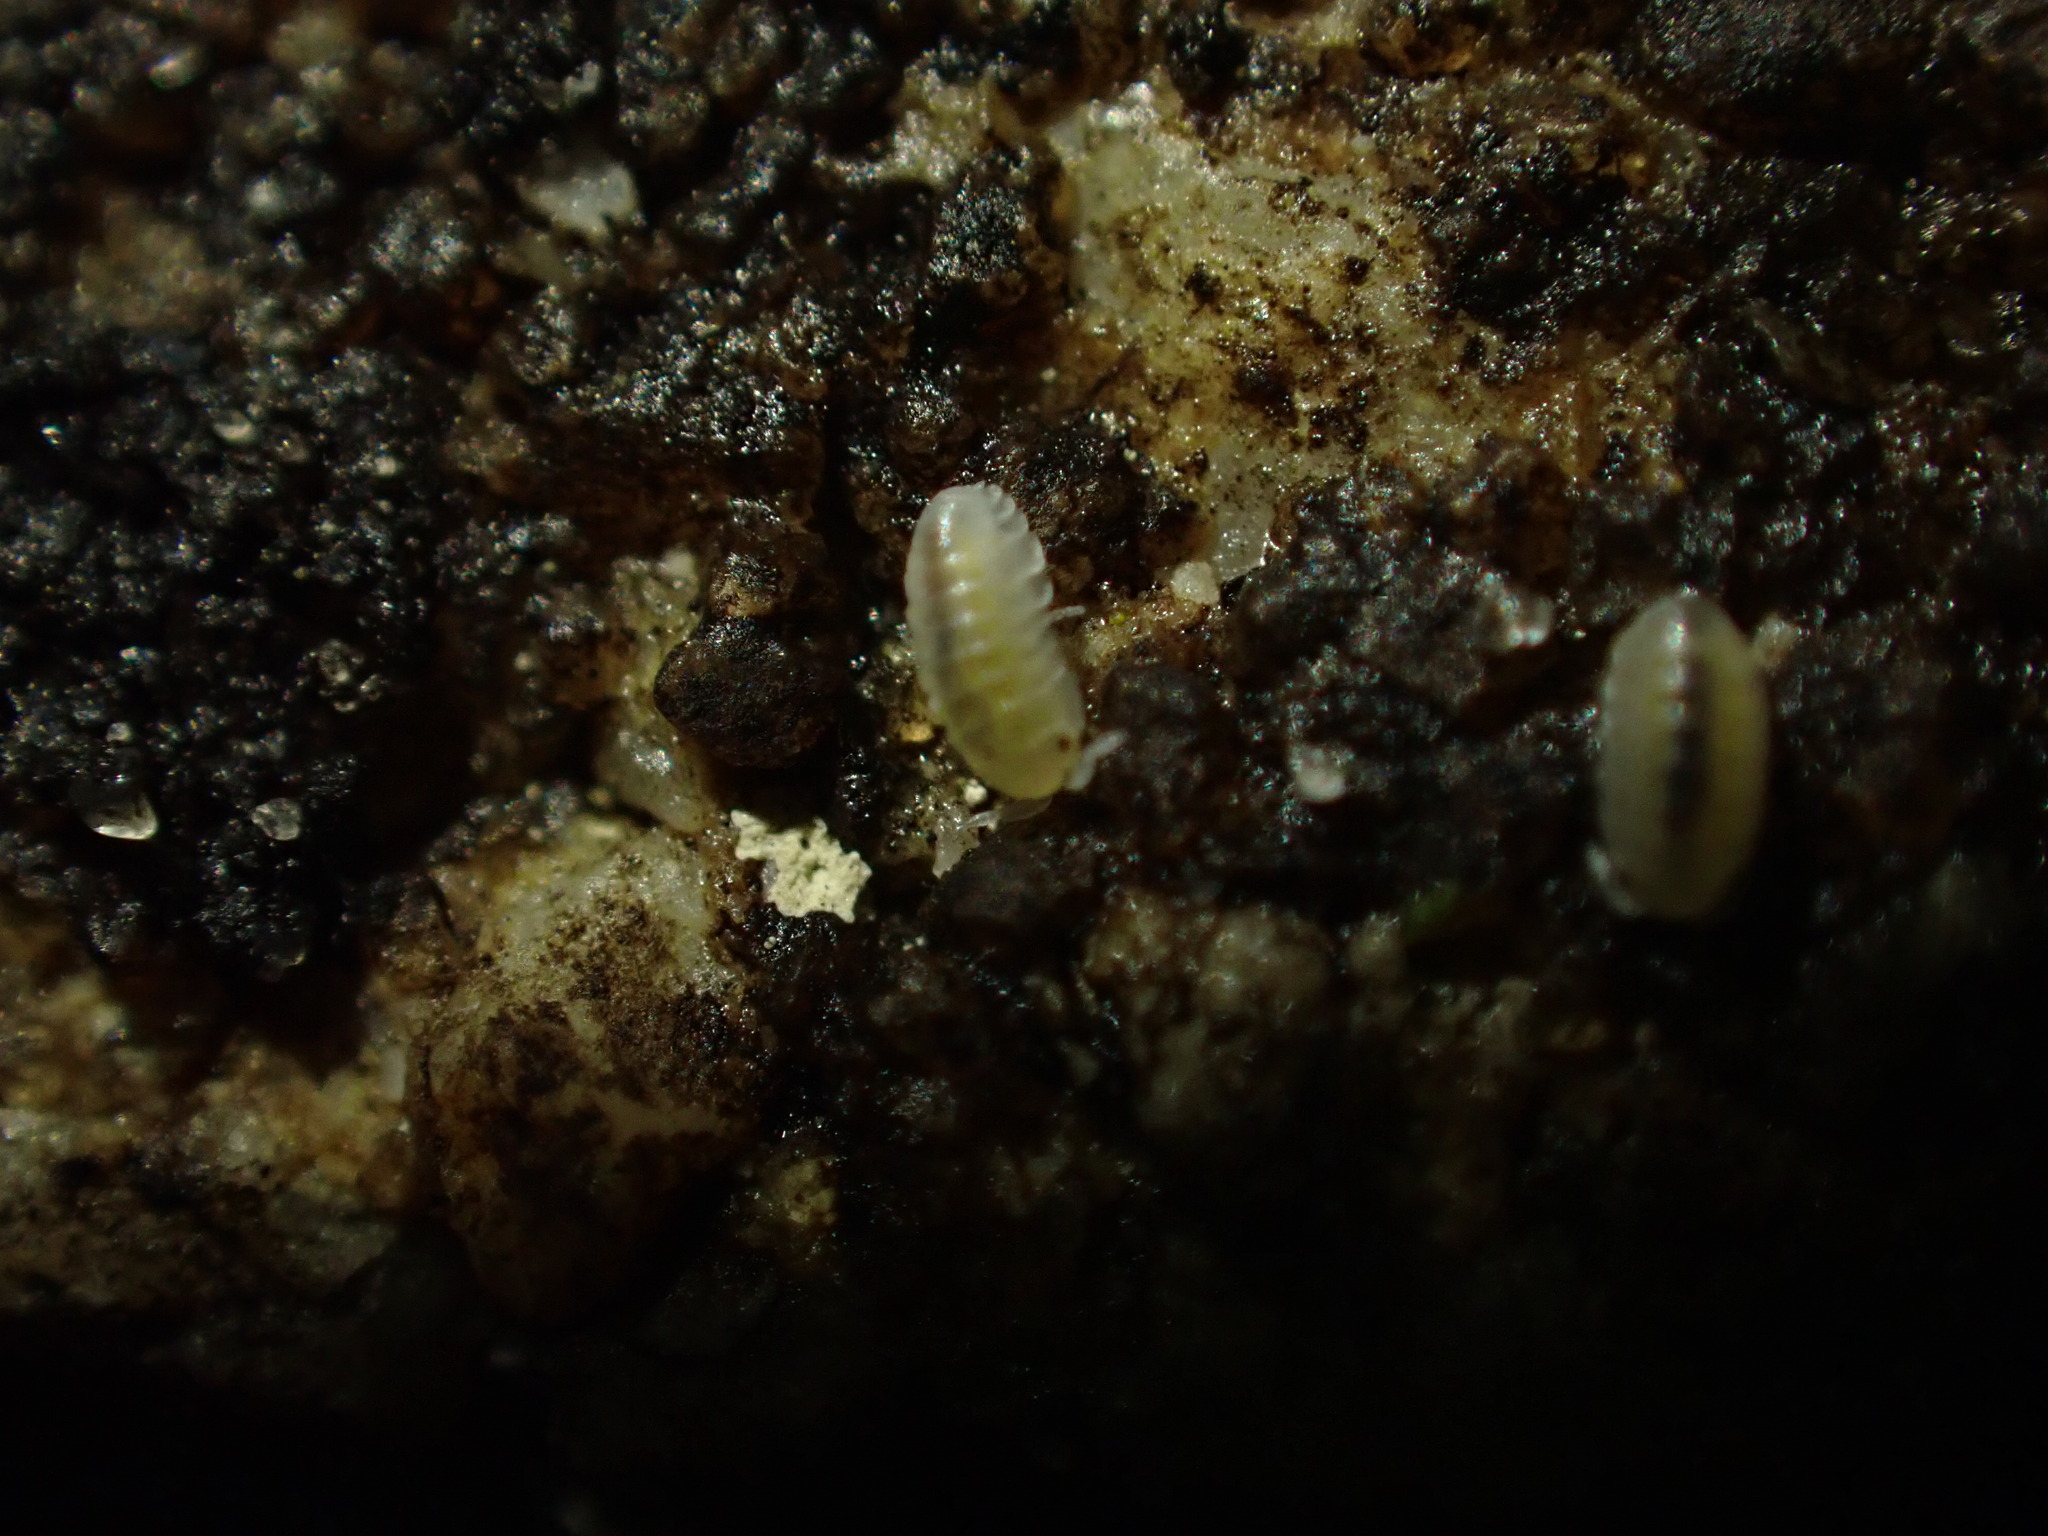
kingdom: Animalia
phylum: Arthropoda
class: Malacostraca
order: Isopoda
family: Armadillidiidae
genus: Armadillidium
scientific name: Armadillidium vulgare
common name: Common pill woodlouse
